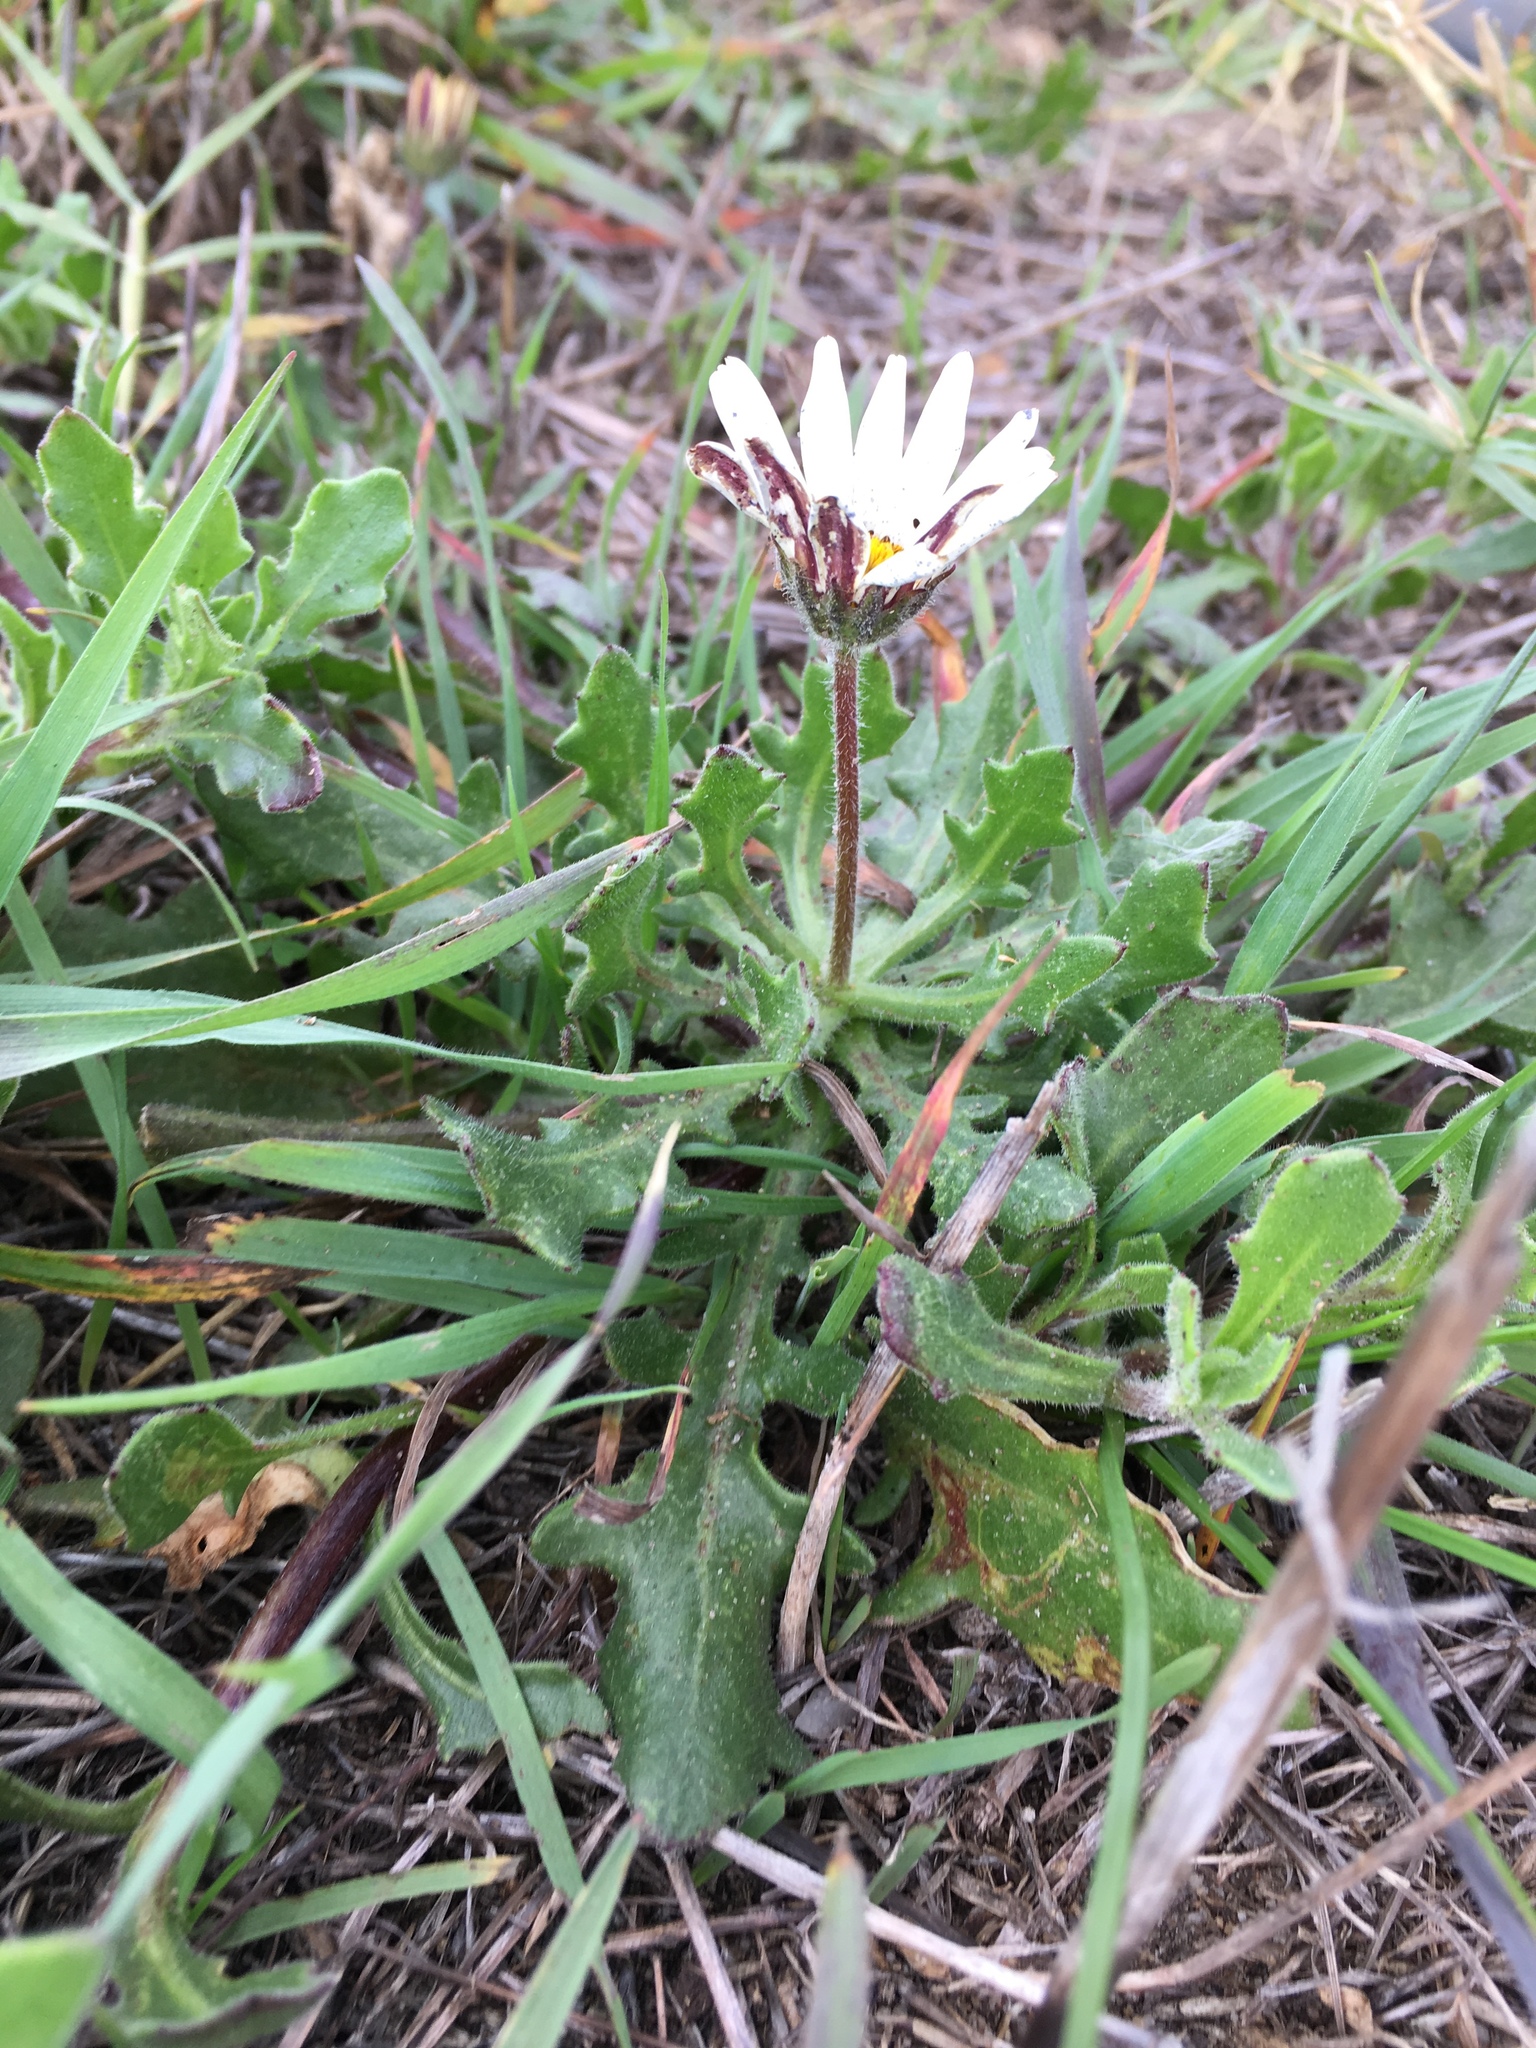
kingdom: Plantae
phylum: Tracheophyta
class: Magnoliopsida
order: Asterales
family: Asteraceae
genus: Dimorphotheca
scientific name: Dimorphotheca pluvialis
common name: Weather prophet
